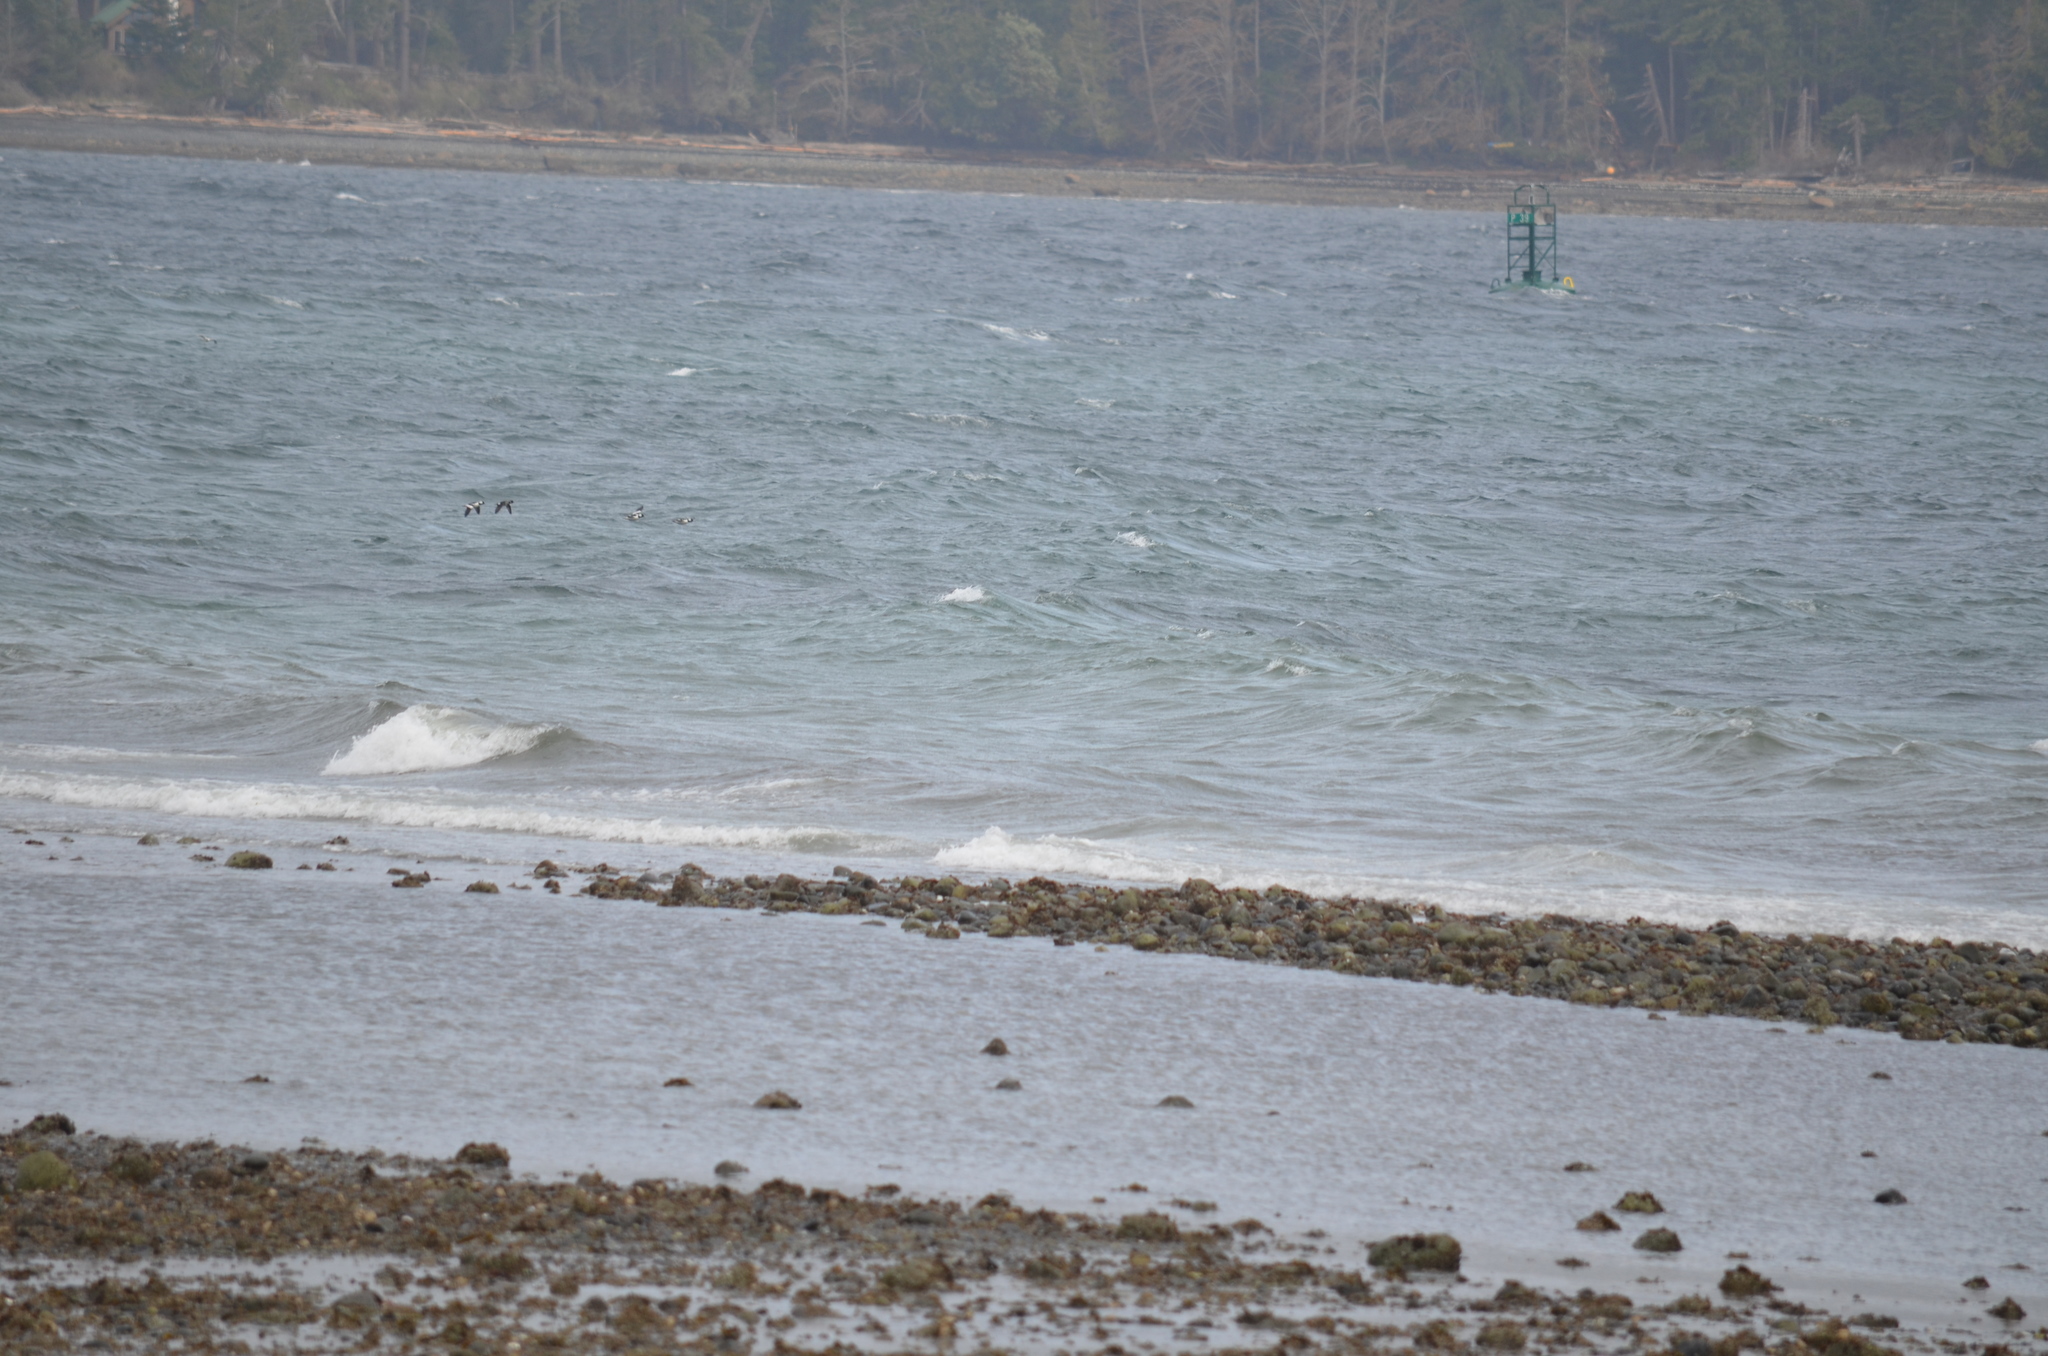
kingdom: Animalia
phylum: Chordata
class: Aves
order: Anseriformes
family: Anatidae
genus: Bucephala
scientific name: Bucephala albeola
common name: Bufflehead
